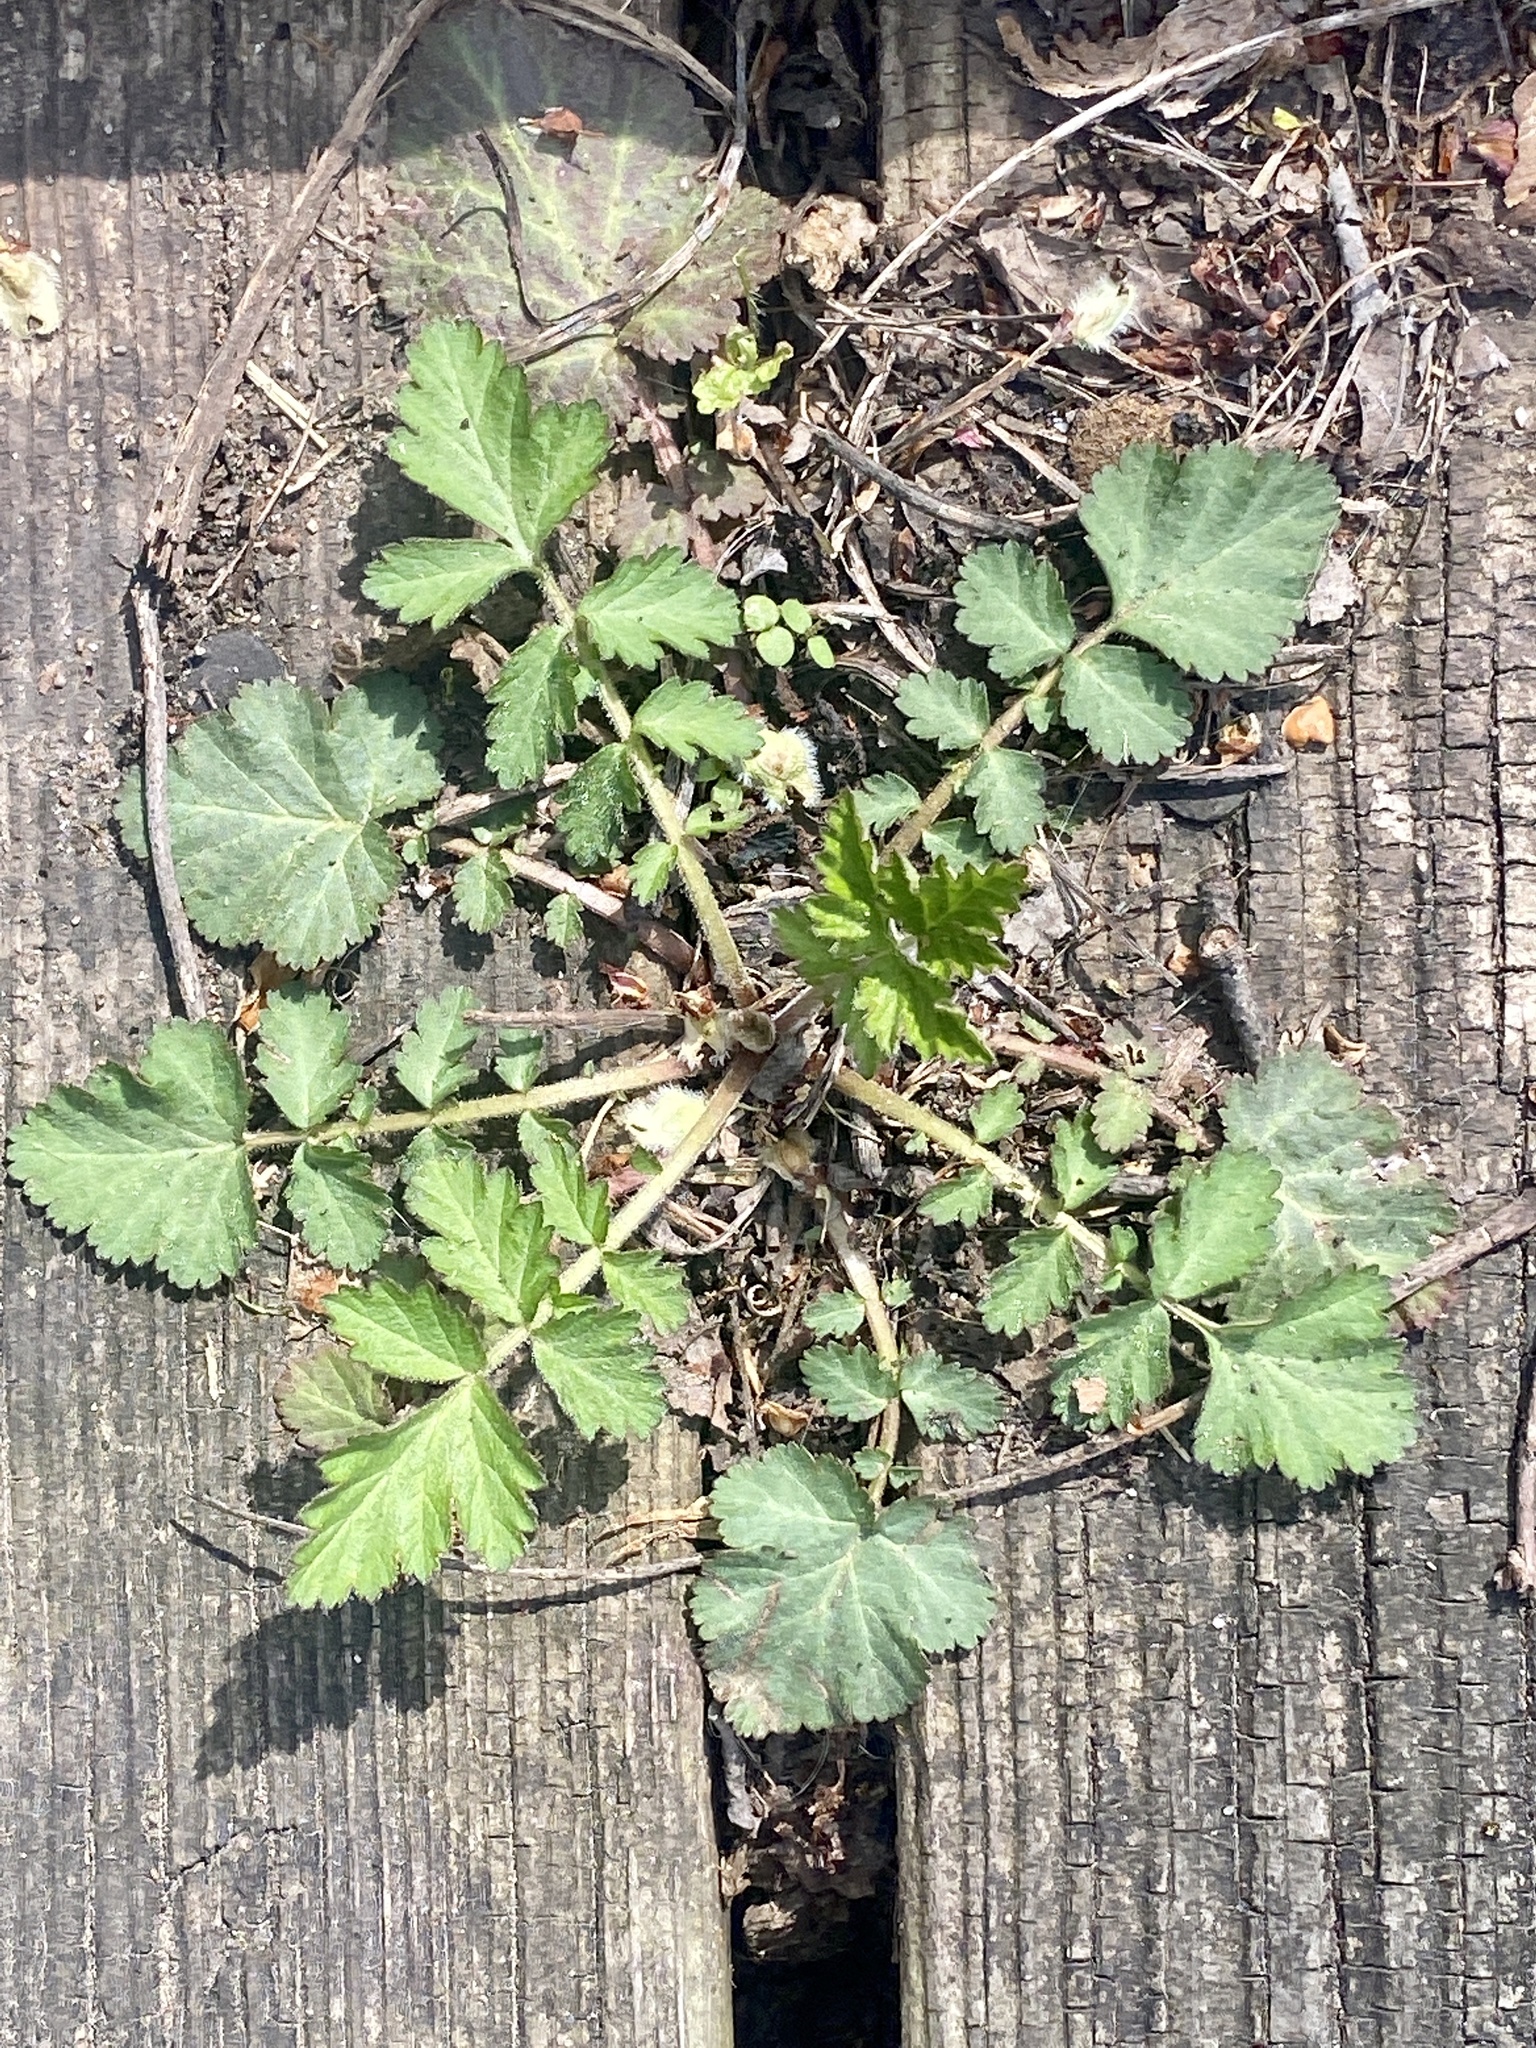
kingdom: Plantae
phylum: Tracheophyta
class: Magnoliopsida
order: Rosales
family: Rosaceae
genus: Geum
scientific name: Geum canadense
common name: White avens
